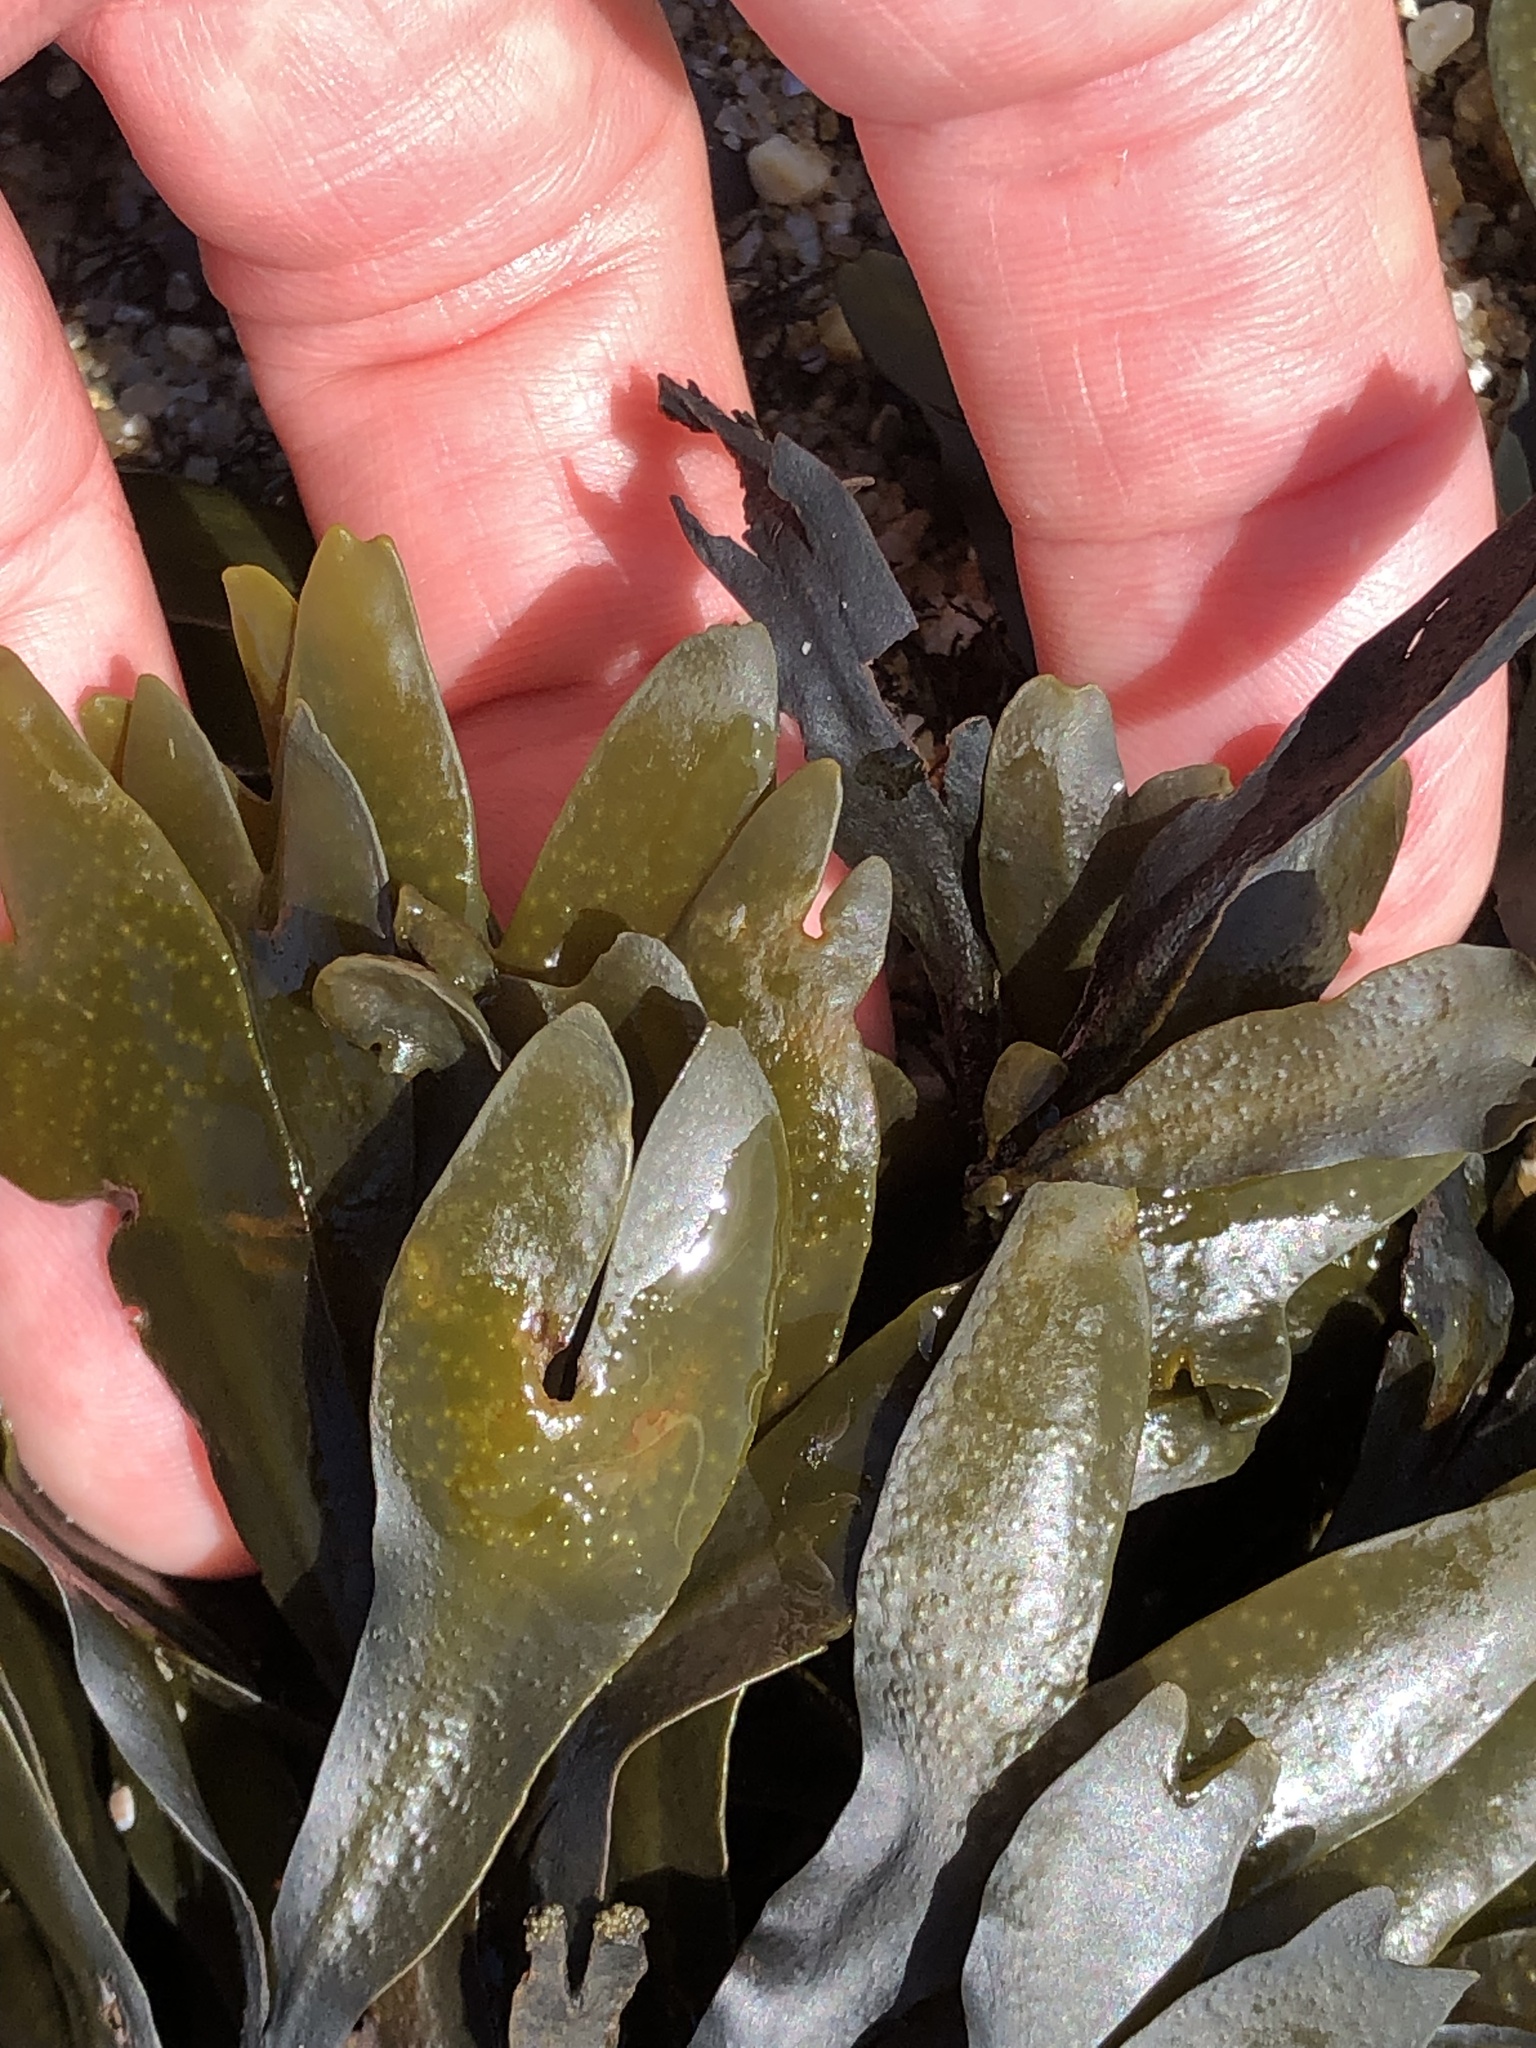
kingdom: Chromista
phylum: Ochrophyta
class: Phaeophyceae
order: Fucales
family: Fucaceae
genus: Fucus
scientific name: Fucus distichus
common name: Rockweed
